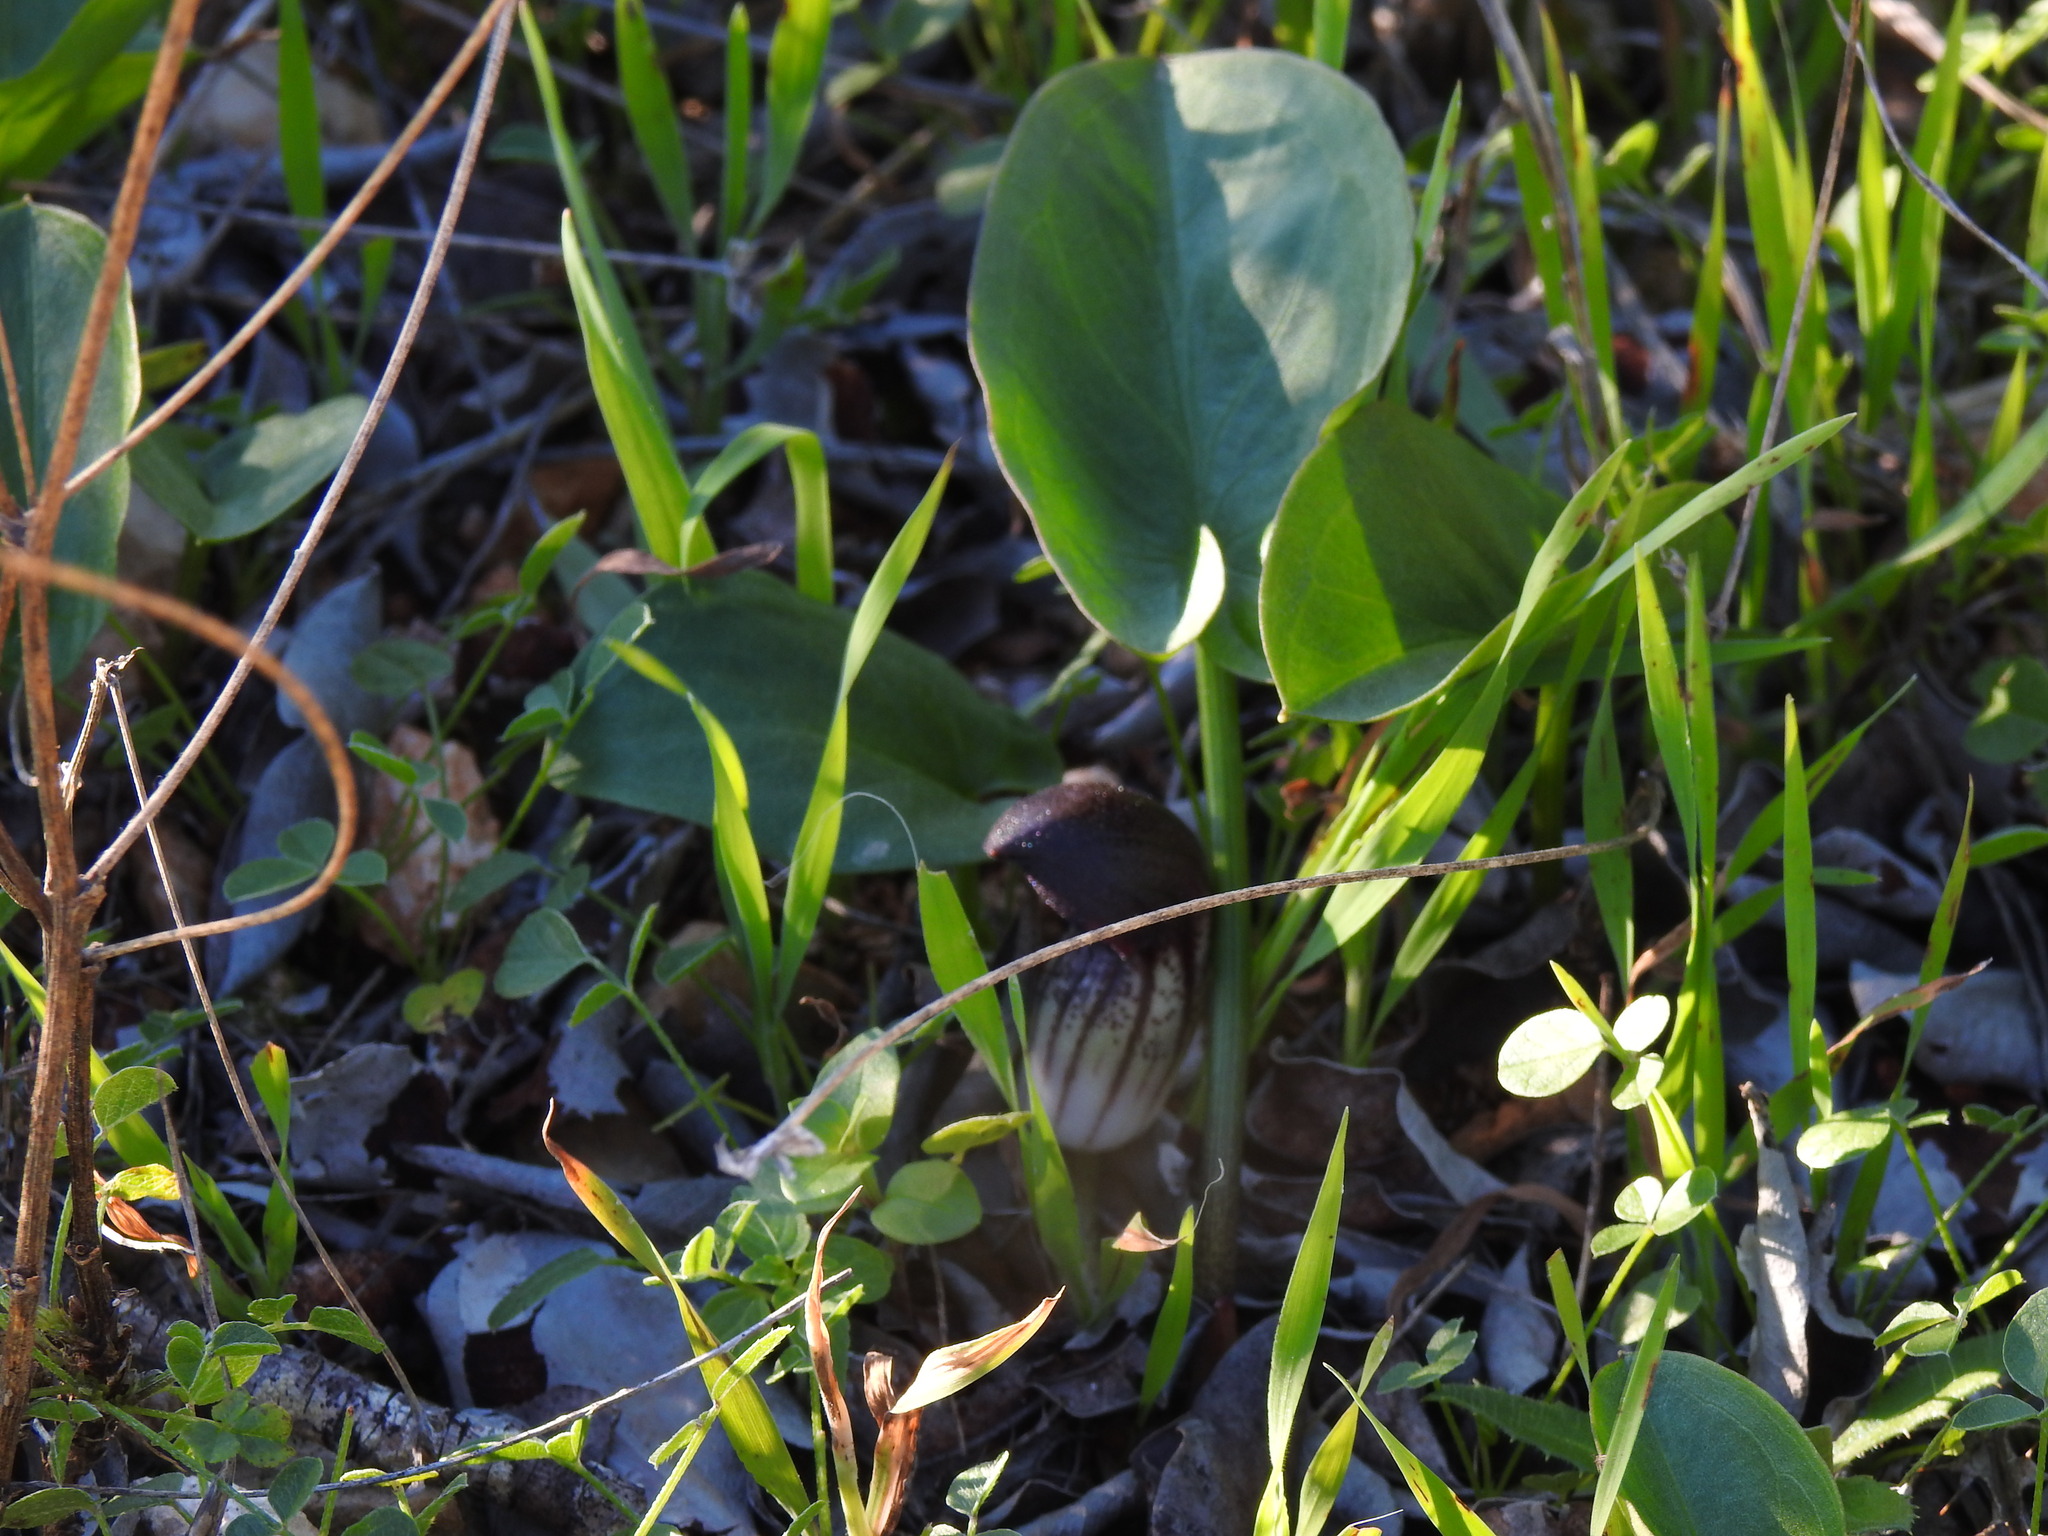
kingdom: Plantae
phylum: Tracheophyta
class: Liliopsida
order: Alismatales
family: Araceae
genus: Arisarum
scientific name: Arisarum simorrhinum
